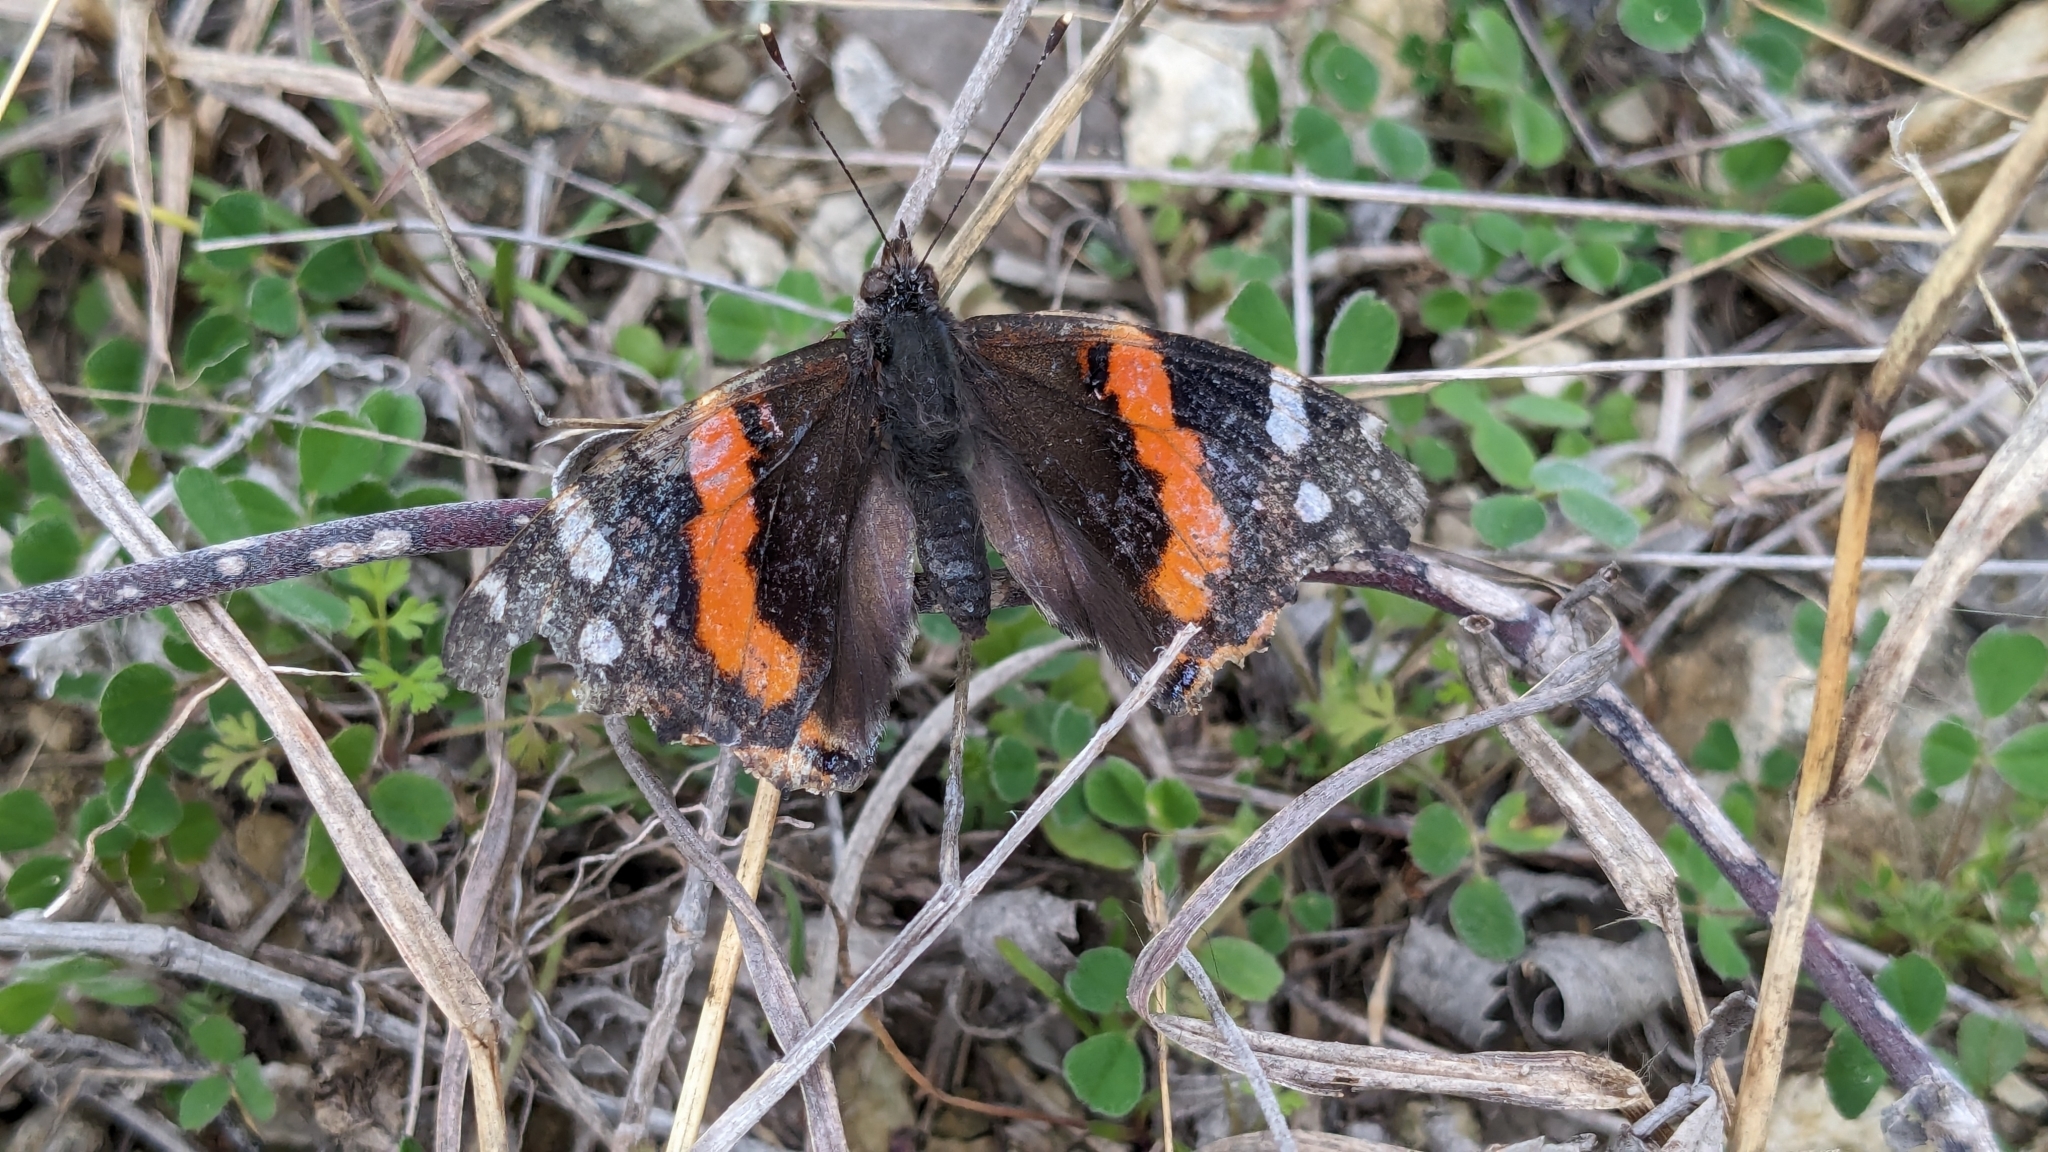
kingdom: Animalia
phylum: Arthropoda
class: Insecta
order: Lepidoptera
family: Nymphalidae
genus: Vanessa
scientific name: Vanessa atalanta
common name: Red admiral
